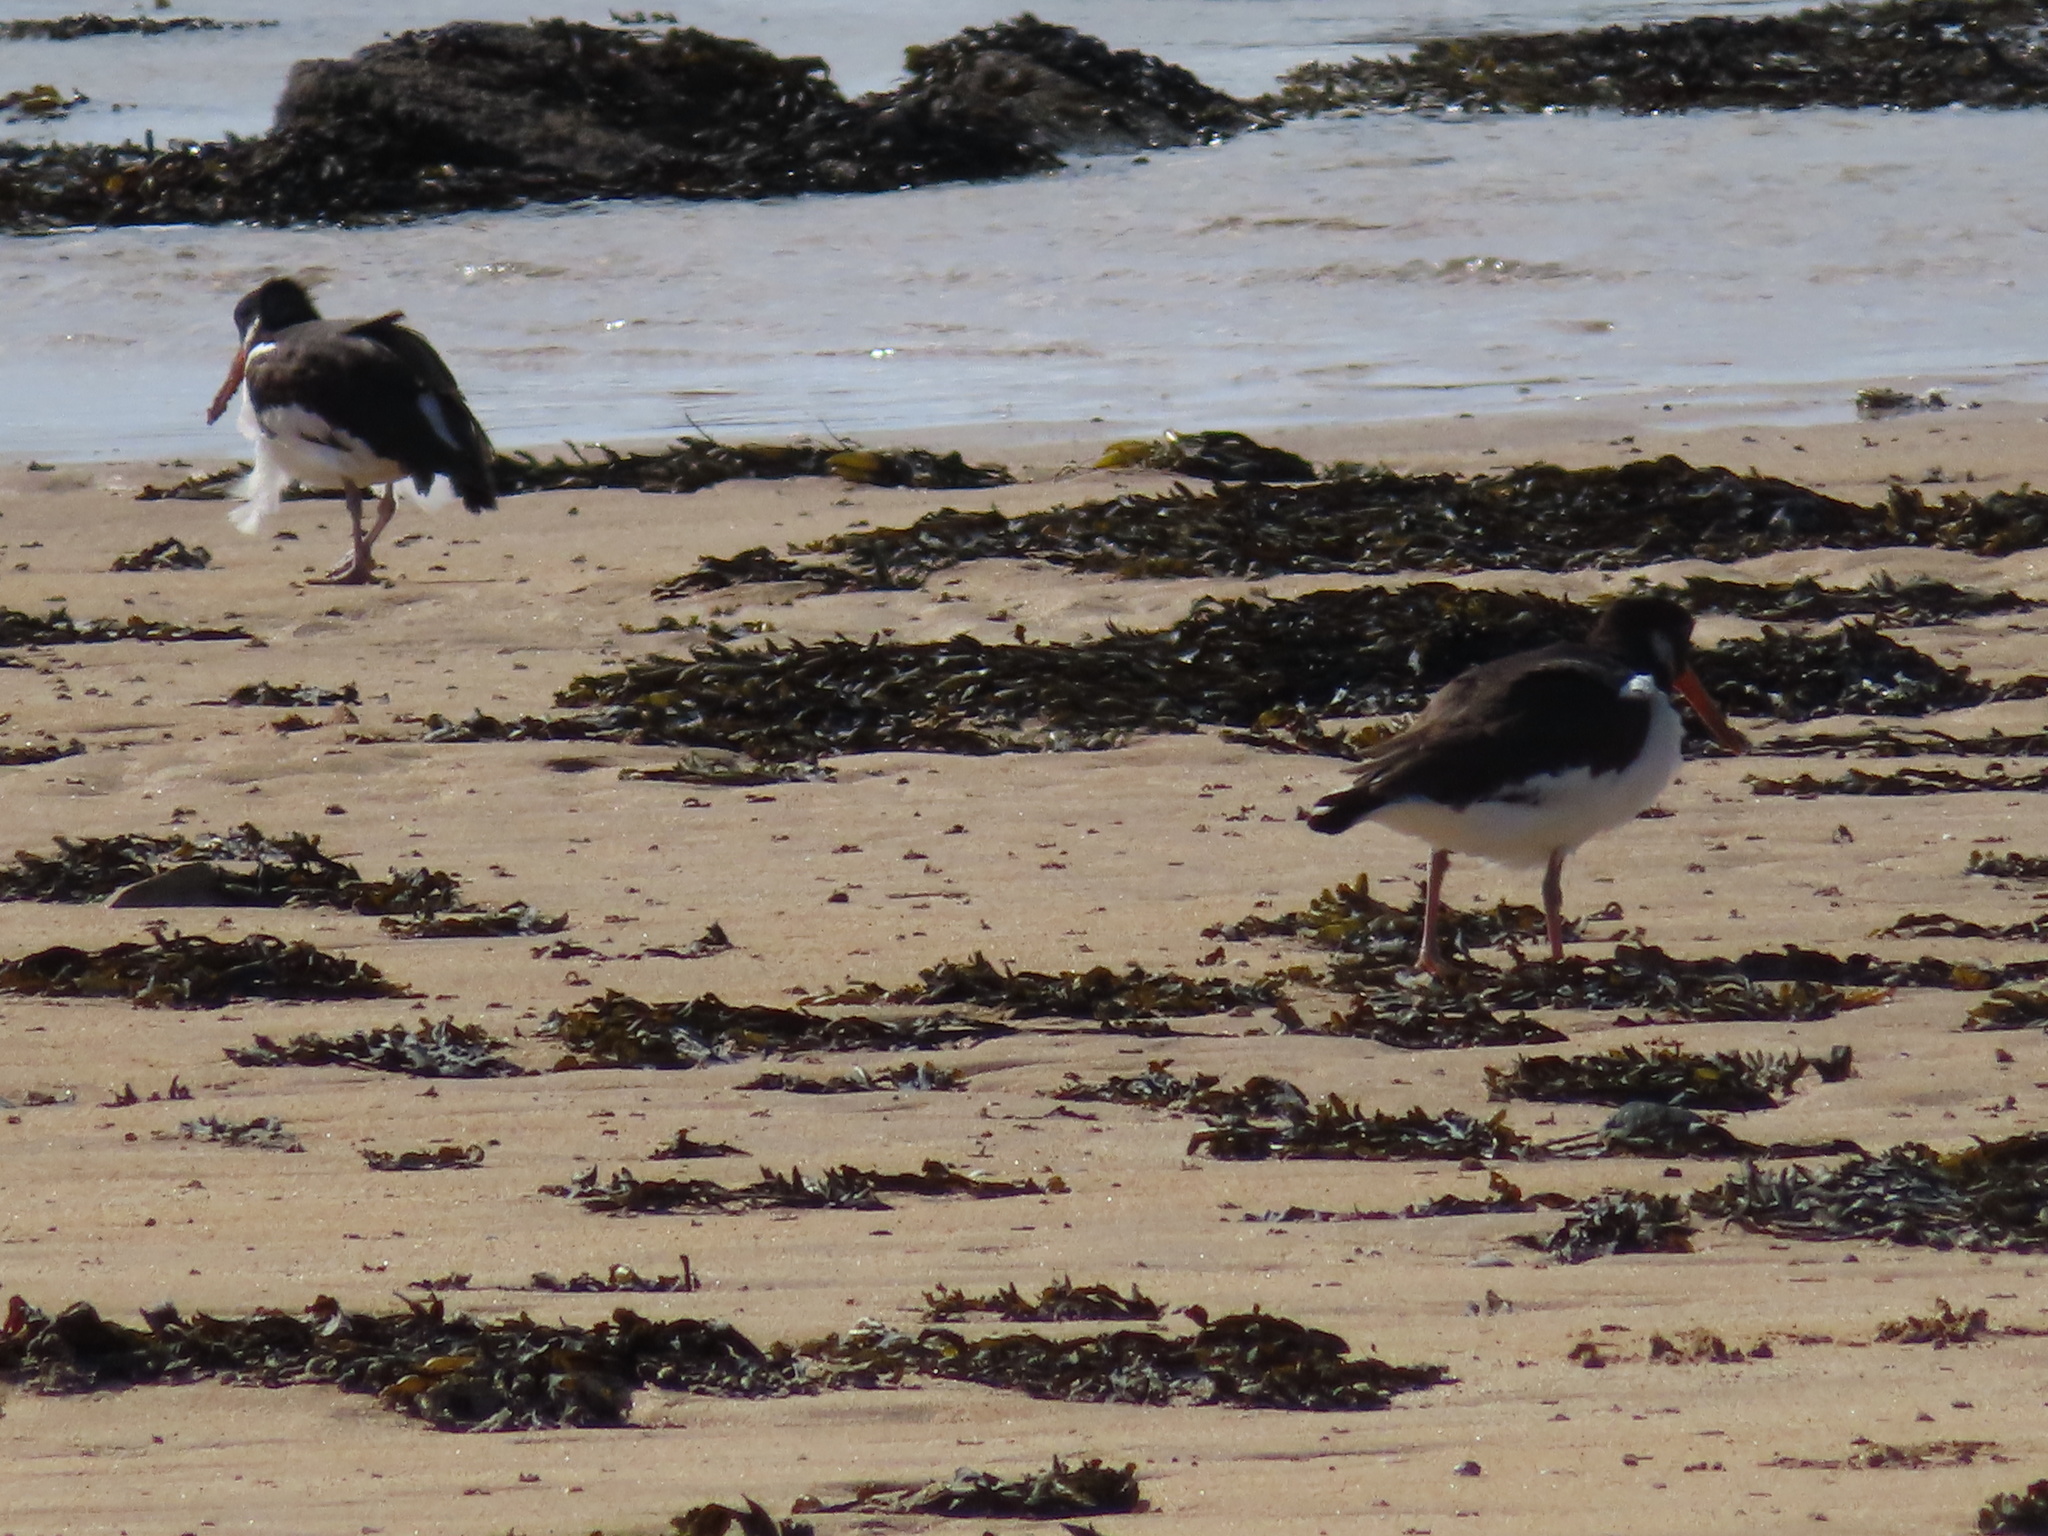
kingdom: Animalia
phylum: Chordata
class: Aves
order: Charadriiformes
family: Haematopodidae
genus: Haematopus
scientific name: Haematopus ostralegus
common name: Eurasian oystercatcher
